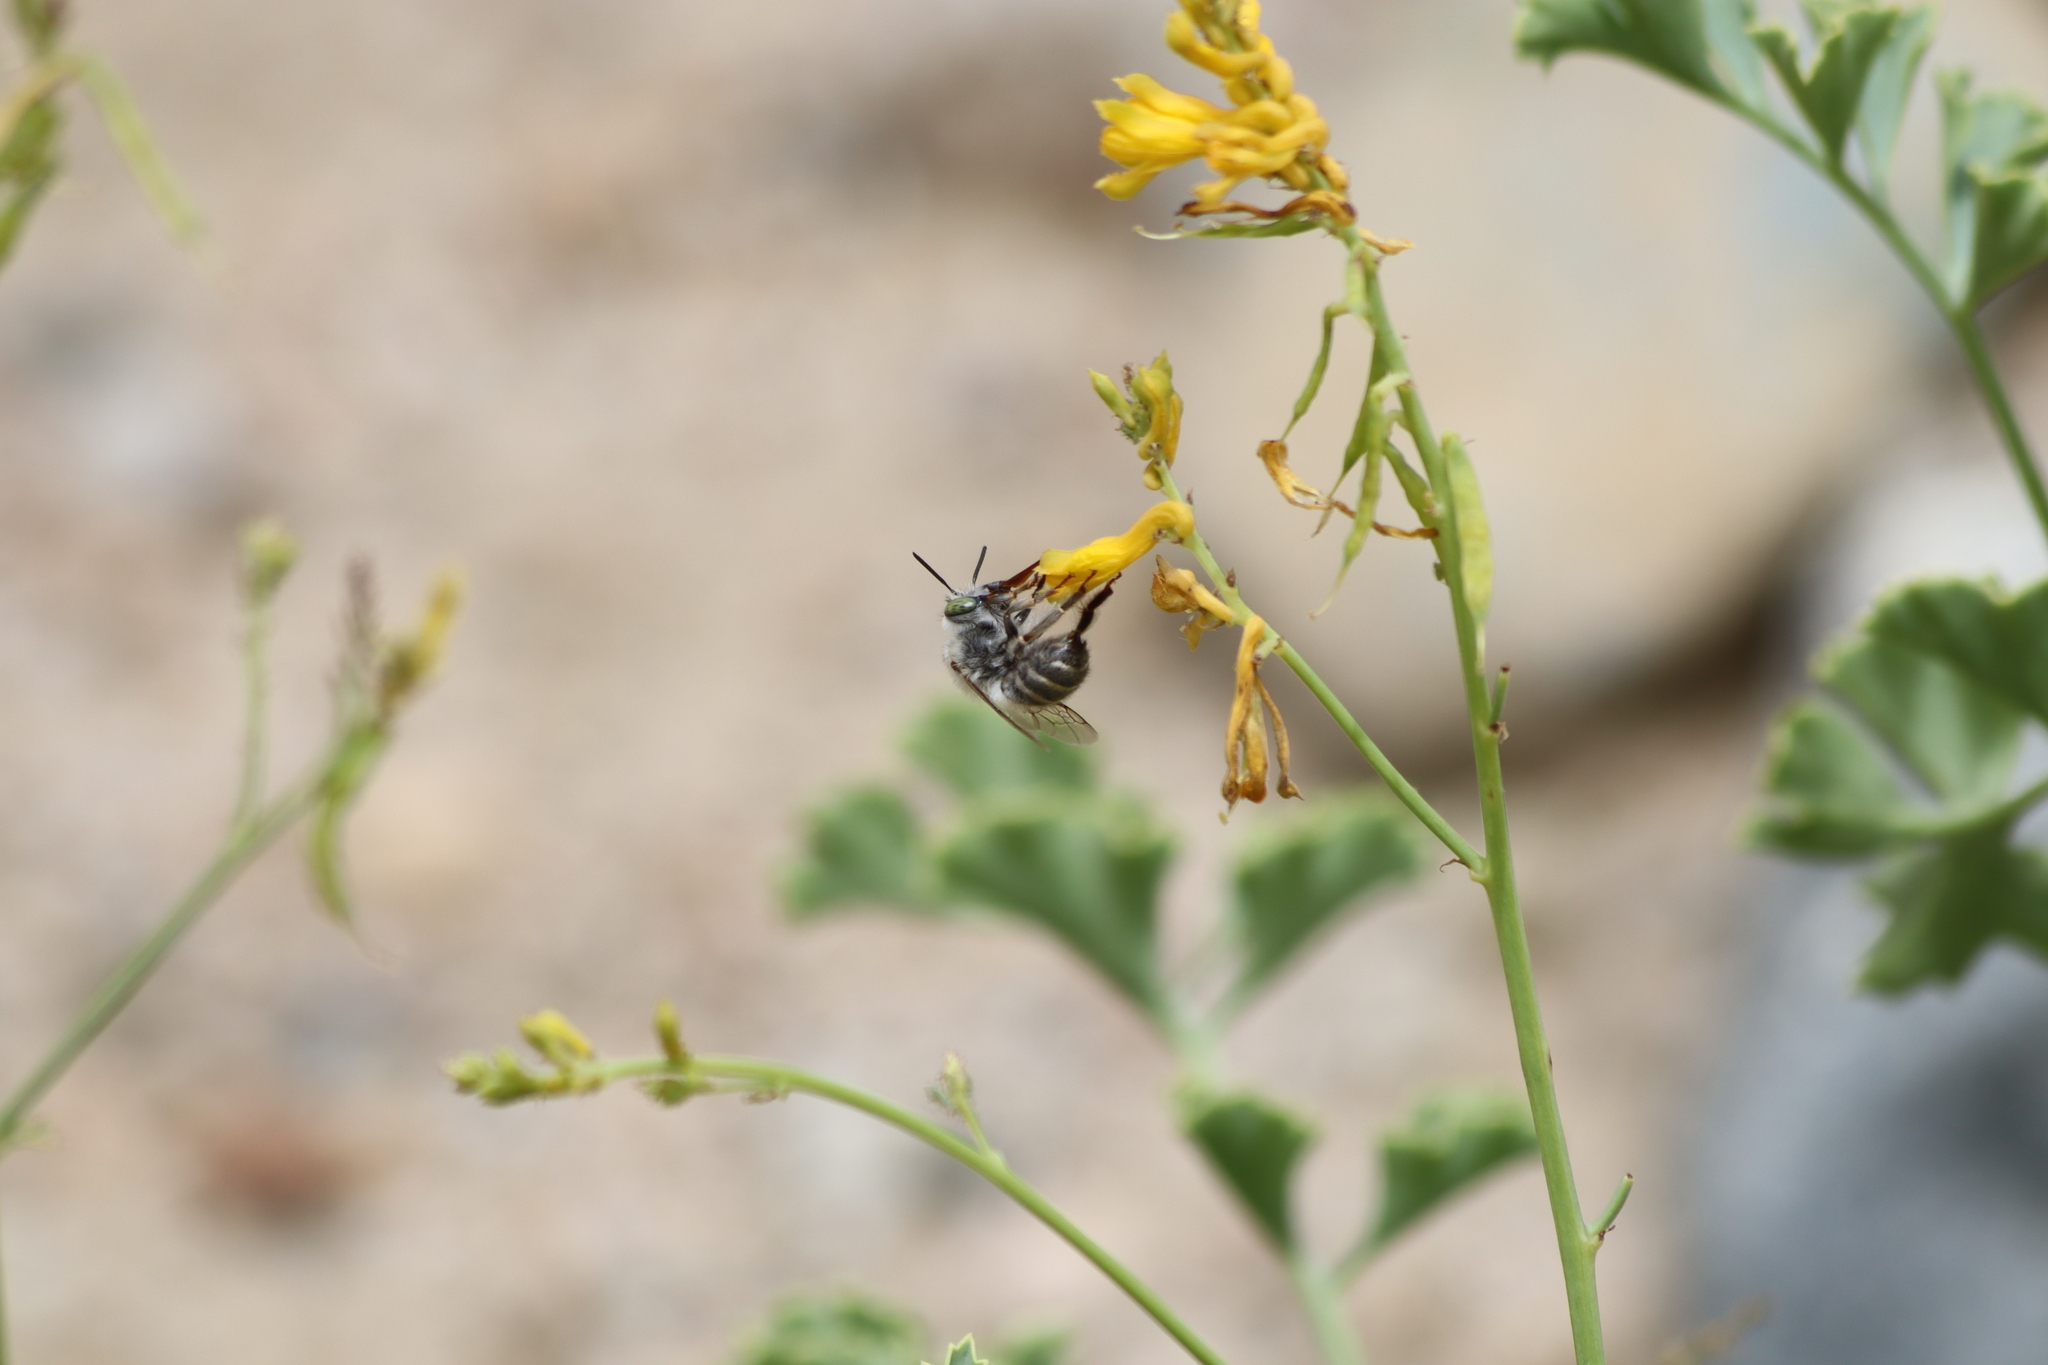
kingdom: Animalia
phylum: Arthropoda
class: Insecta
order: Hymenoptera
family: Apidae
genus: Anthophora
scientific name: Anthophora
